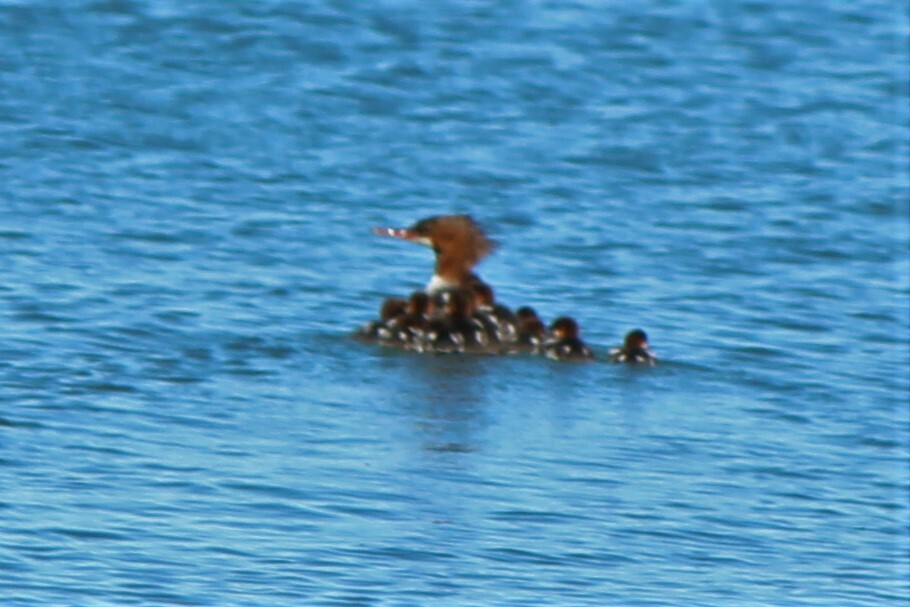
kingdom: Animalia
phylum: Chordata
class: Aves
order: Anseriformes
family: Anatidae
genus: Mergus
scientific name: Mergus merganser
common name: Common merganser
